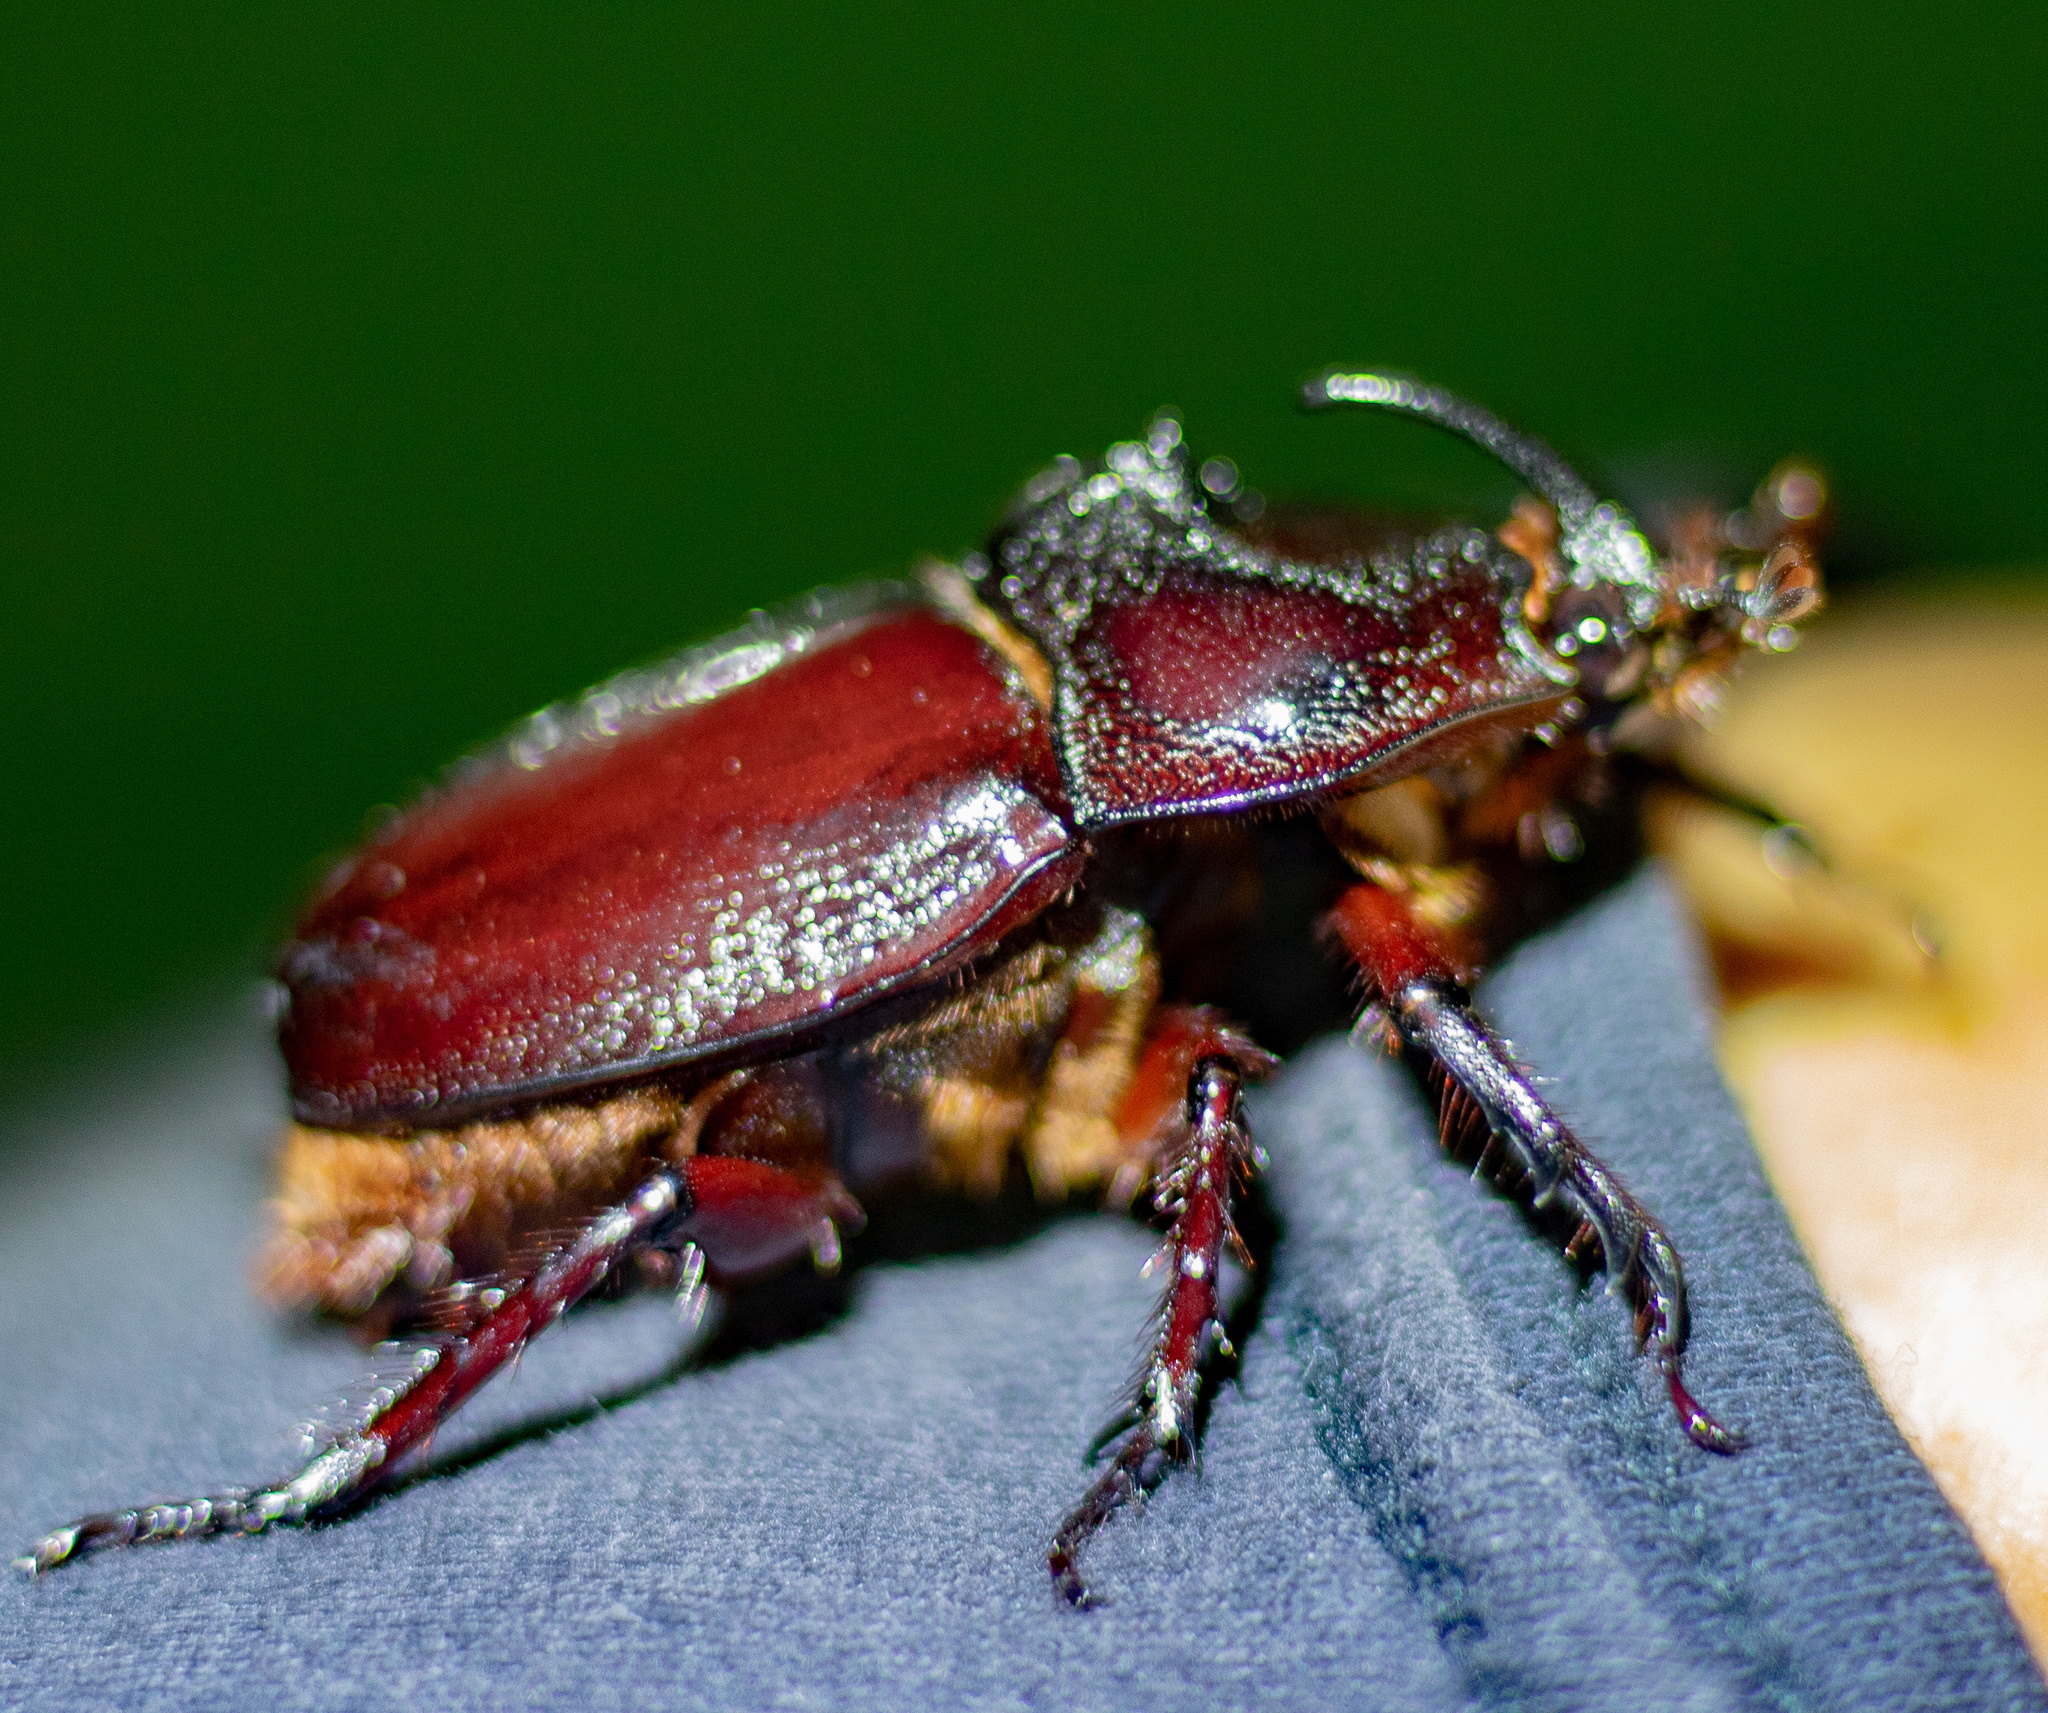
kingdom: Animalia
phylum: Arthropoda
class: Insecta
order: Coleoptera
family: Scarabaeidae
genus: Enema
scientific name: Enema pan
